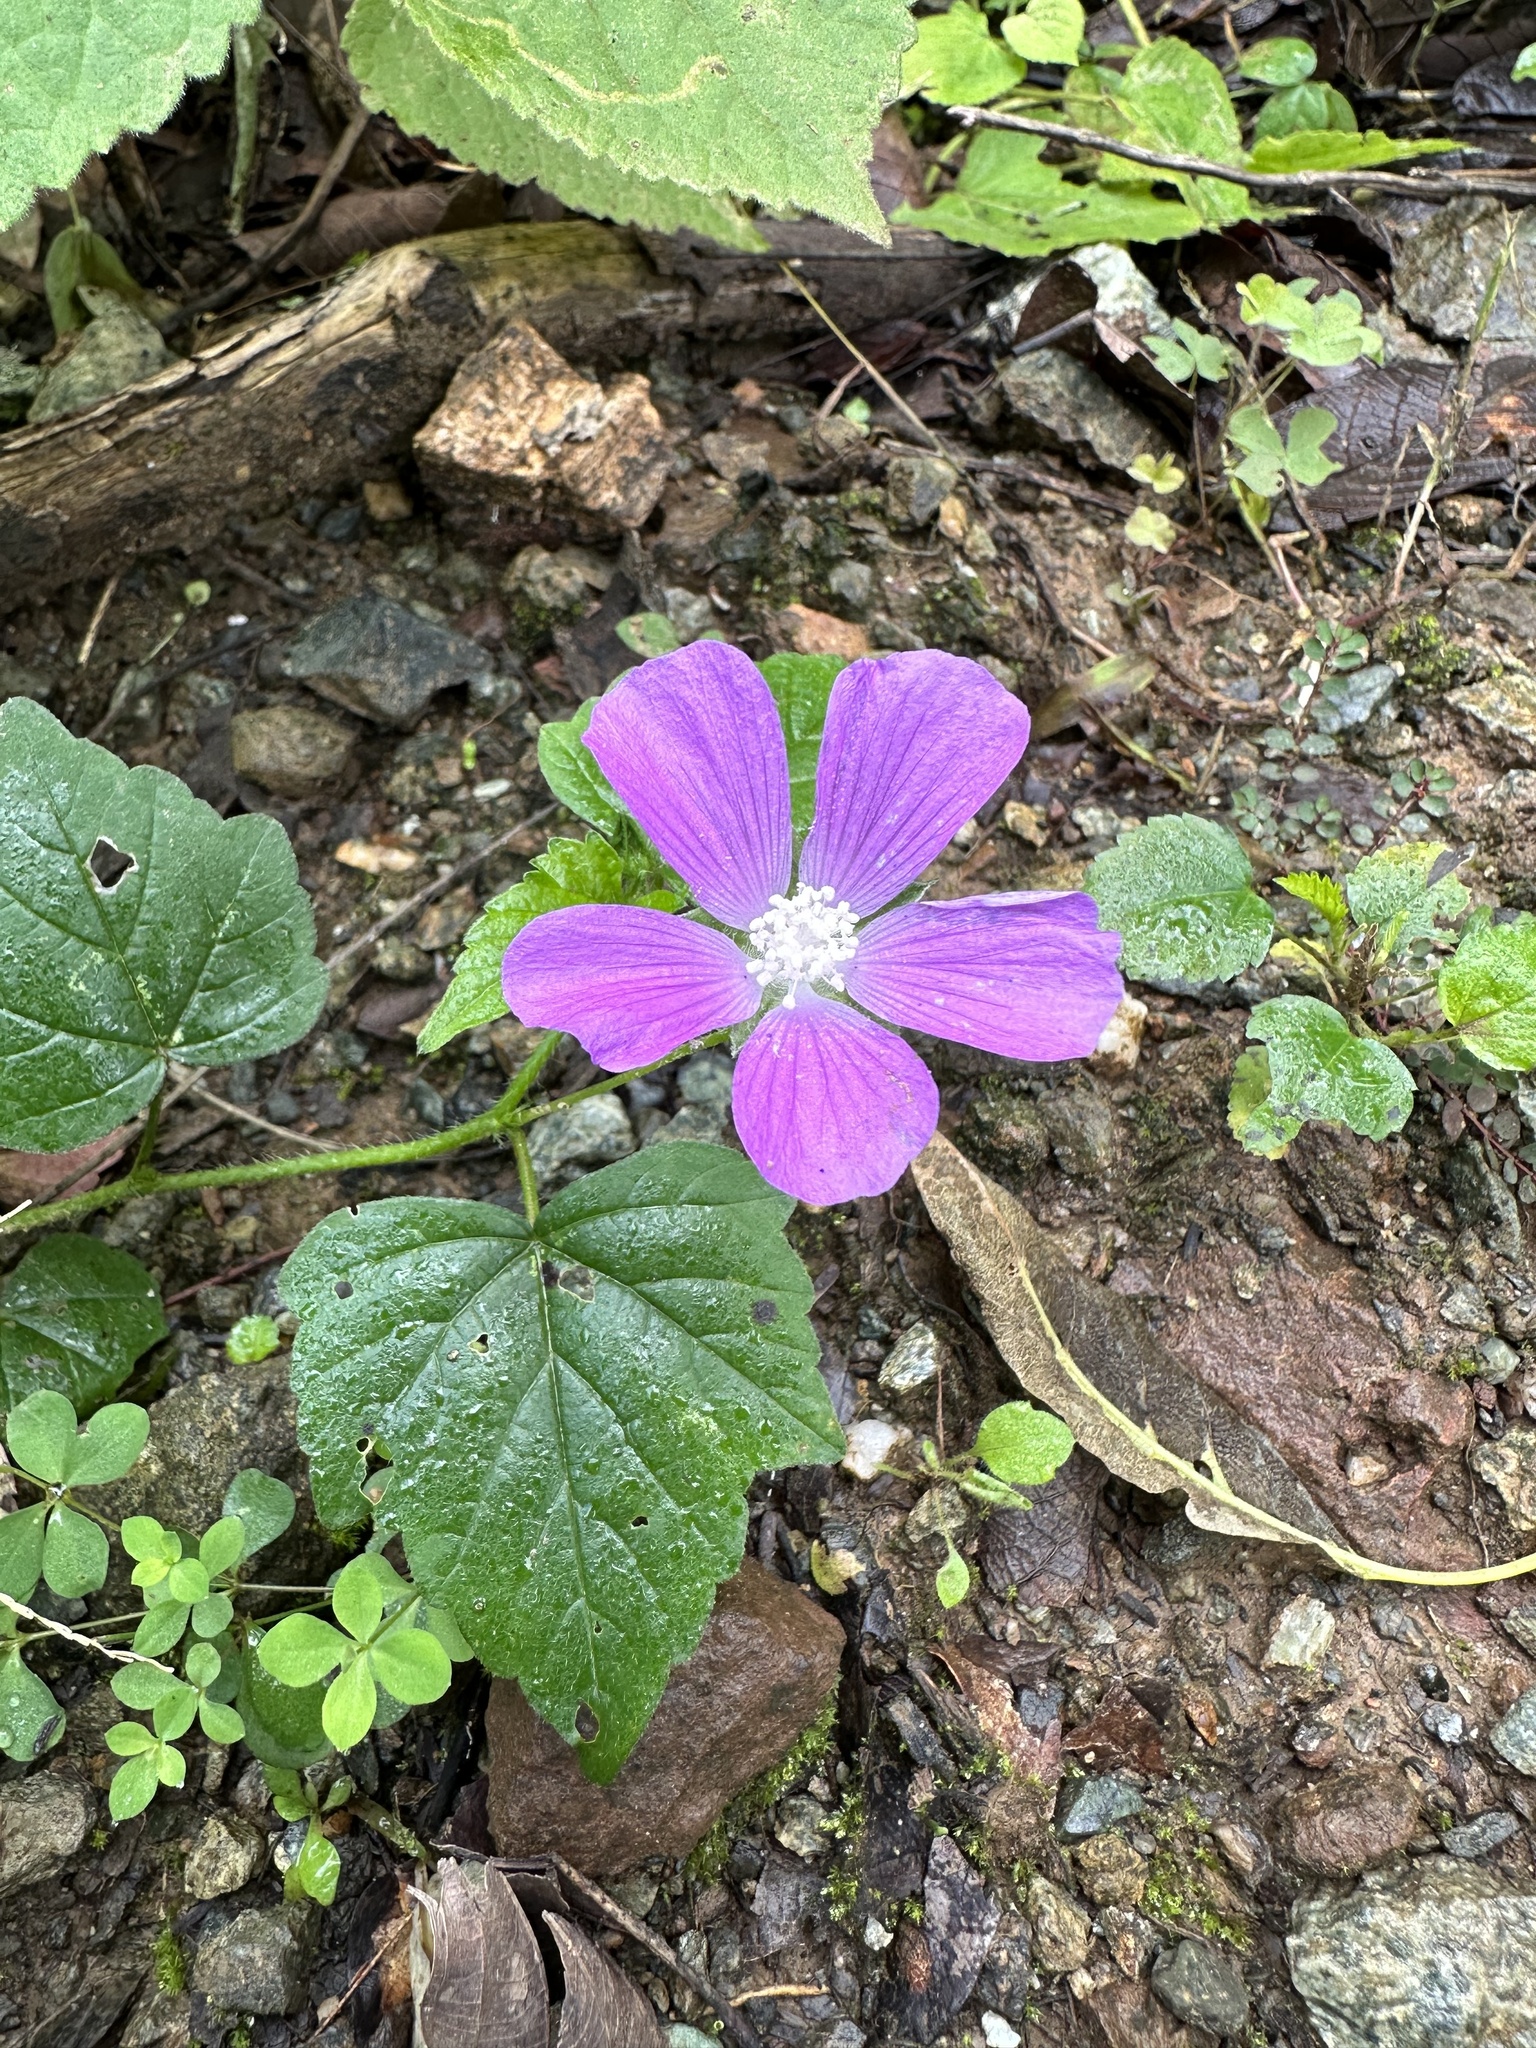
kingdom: Plantae
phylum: Tracheophyta
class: Magnoliopsida
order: Malvales
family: Malvaceae
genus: Anoda
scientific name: Anoda cristata
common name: Spurred anoda
